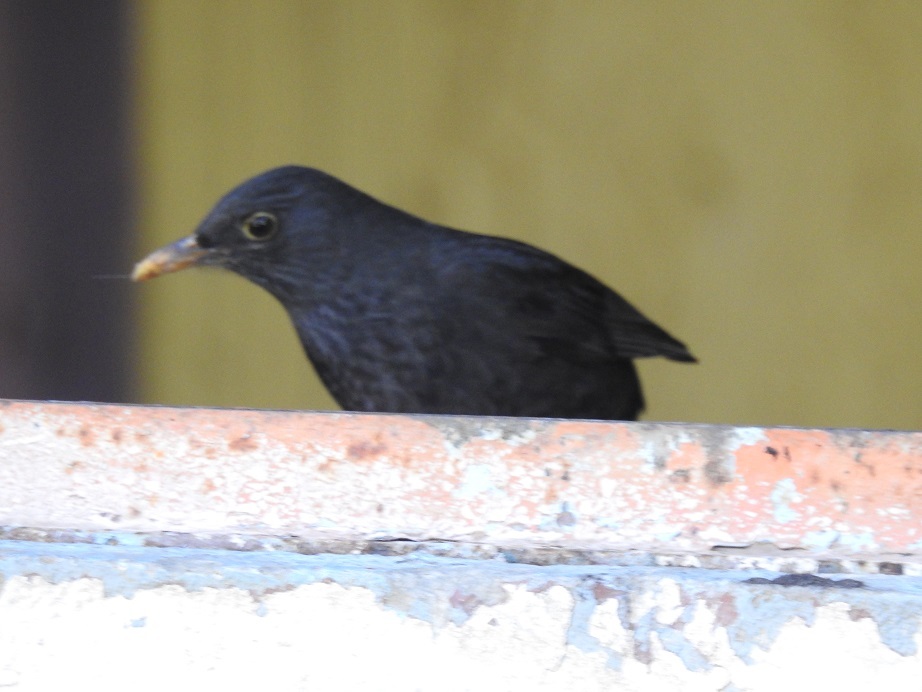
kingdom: Animalia
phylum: Chordata
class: Aves
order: Passeriformes
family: Turdidae
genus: Turdus
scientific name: Turdus merula
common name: Common blackbird
